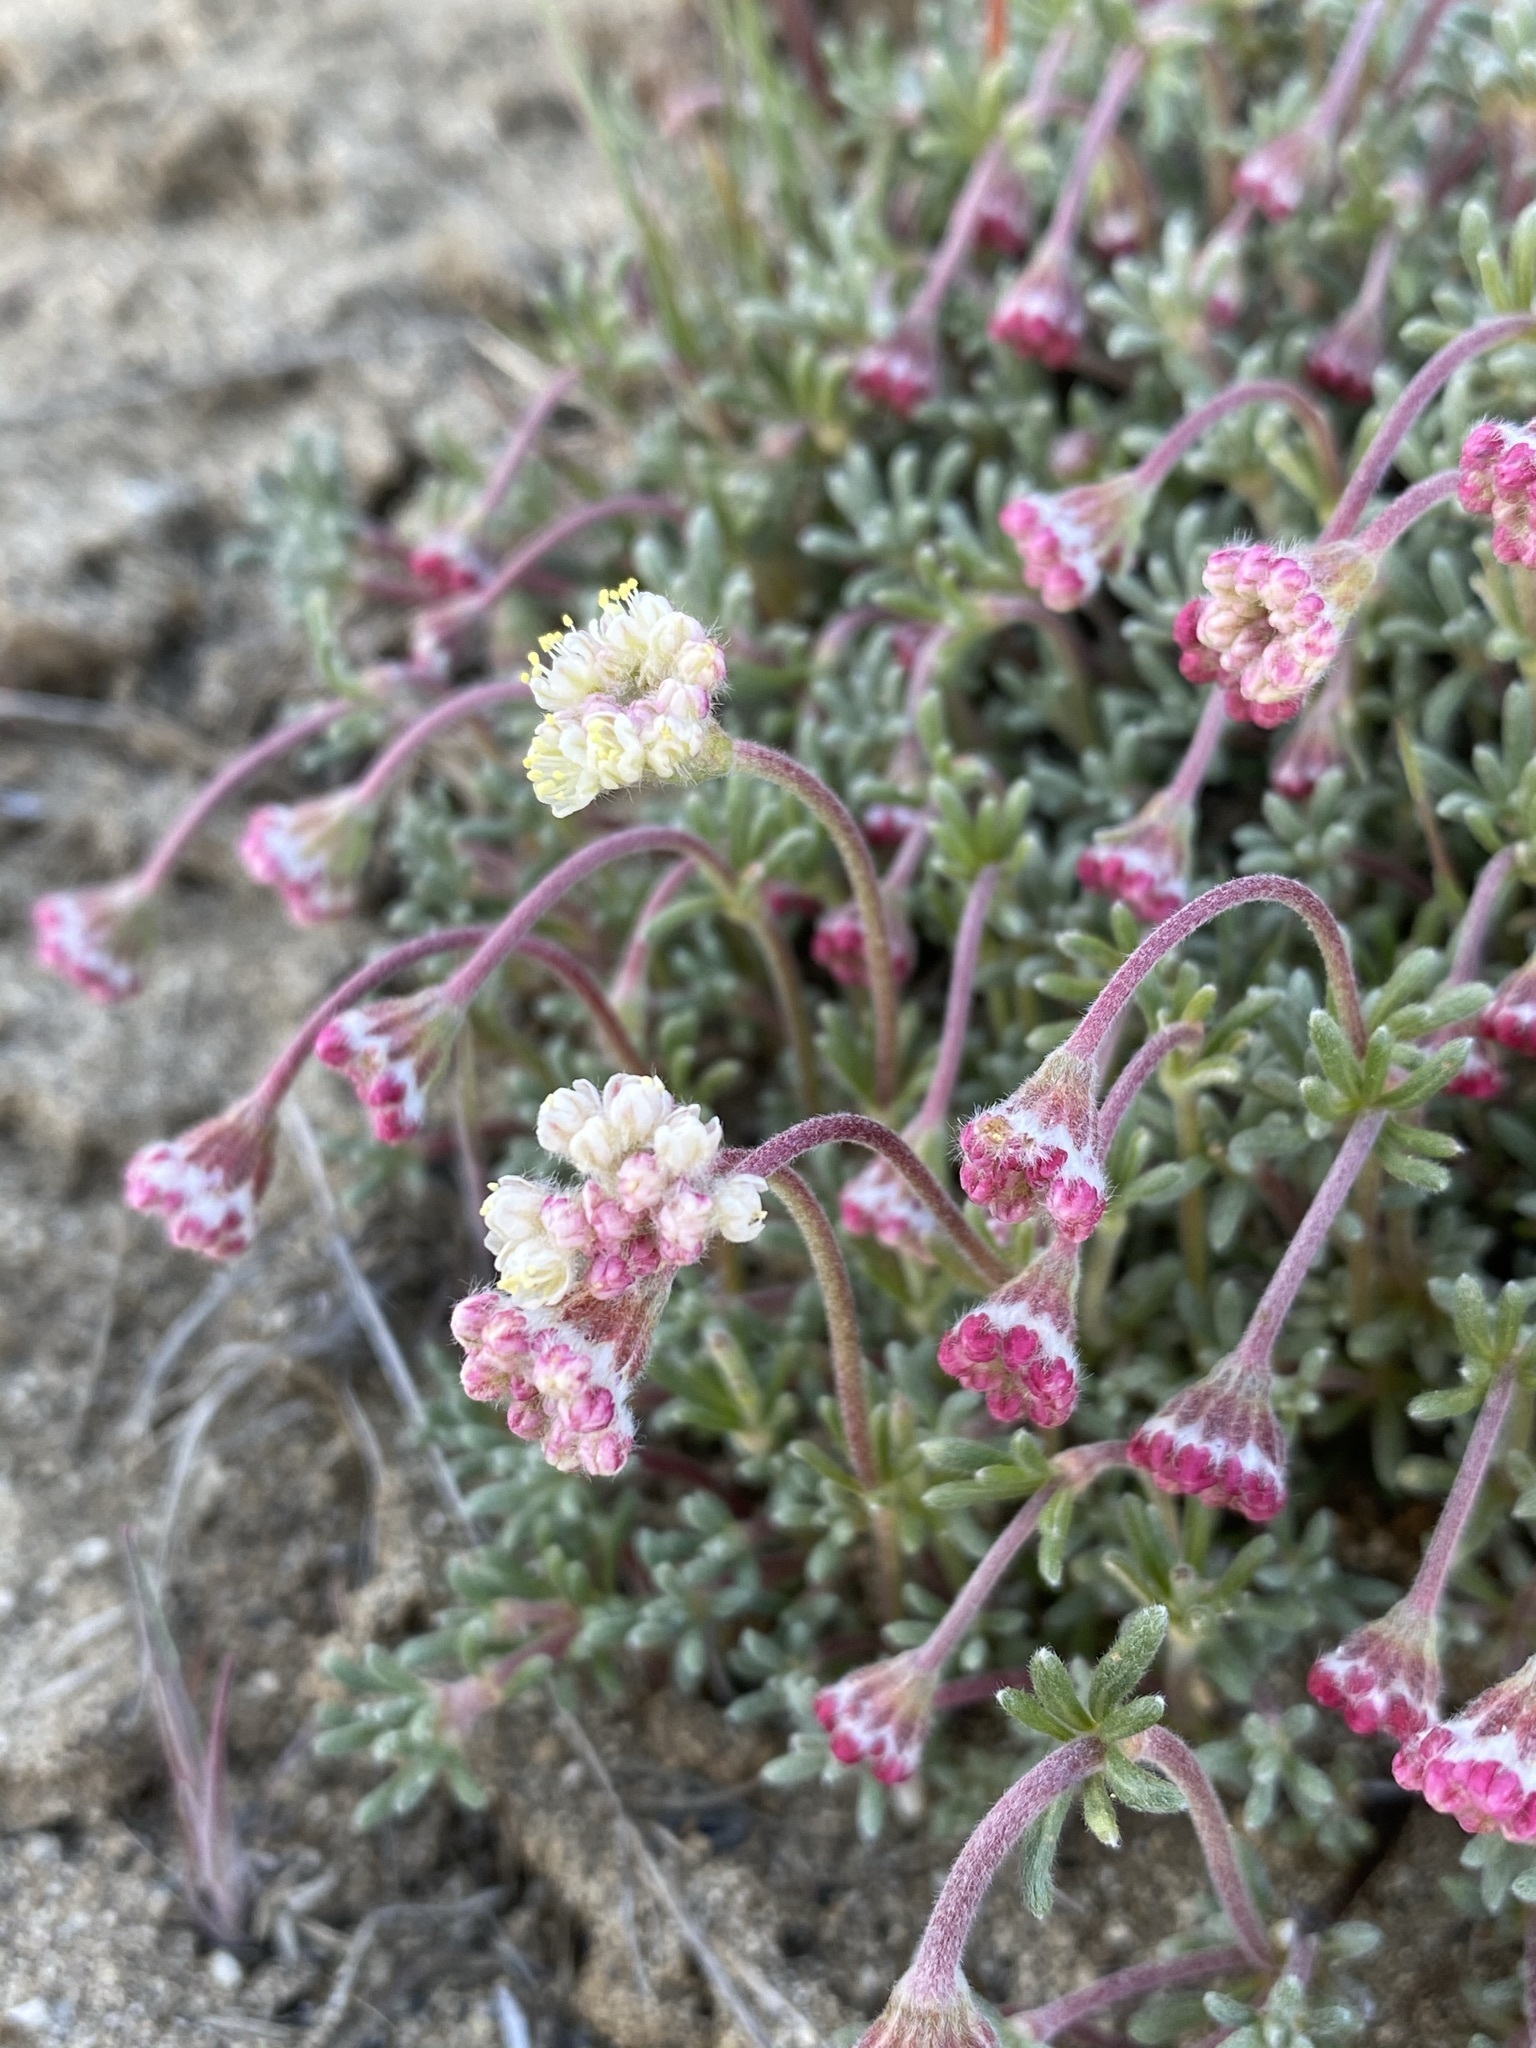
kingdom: Plantae
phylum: Tracheophyta
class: Magnoliopsida
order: Caryophyllales
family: Polygonaceae
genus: Eriogonum
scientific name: Eriogonum thymoides
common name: Thyme-leaf wild buckwheat
